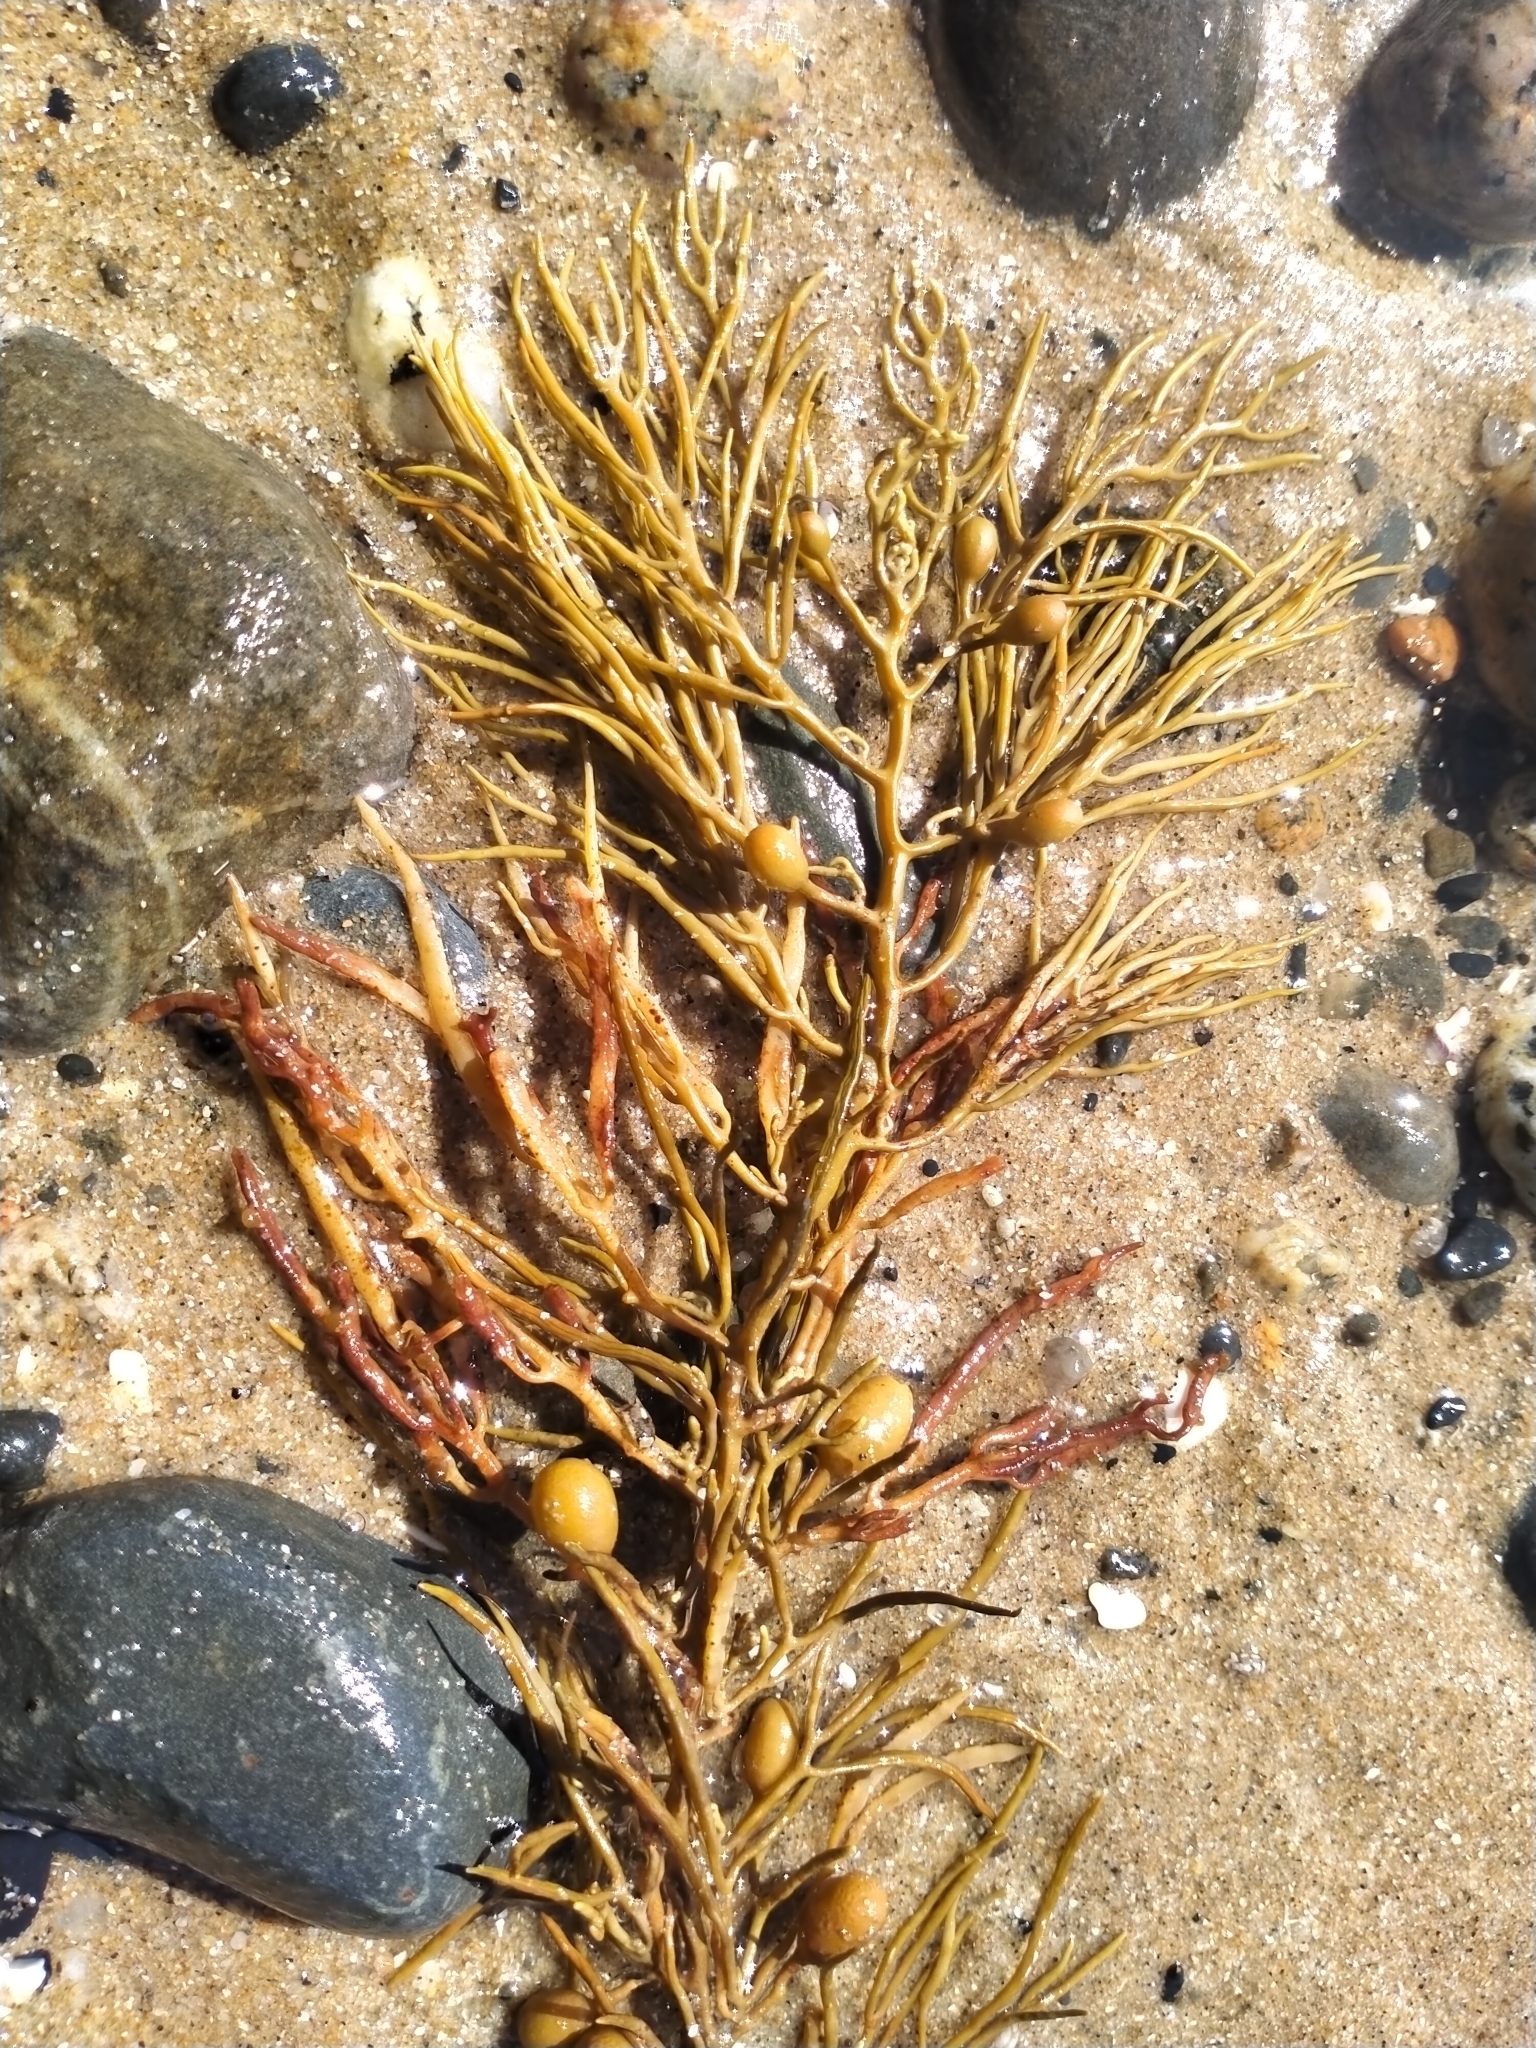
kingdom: Chromista
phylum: Ochrophyta
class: Phaeophyceae
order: Fucales
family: Sargassaceae
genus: Cystophora
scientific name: Cystophora retroflexa
